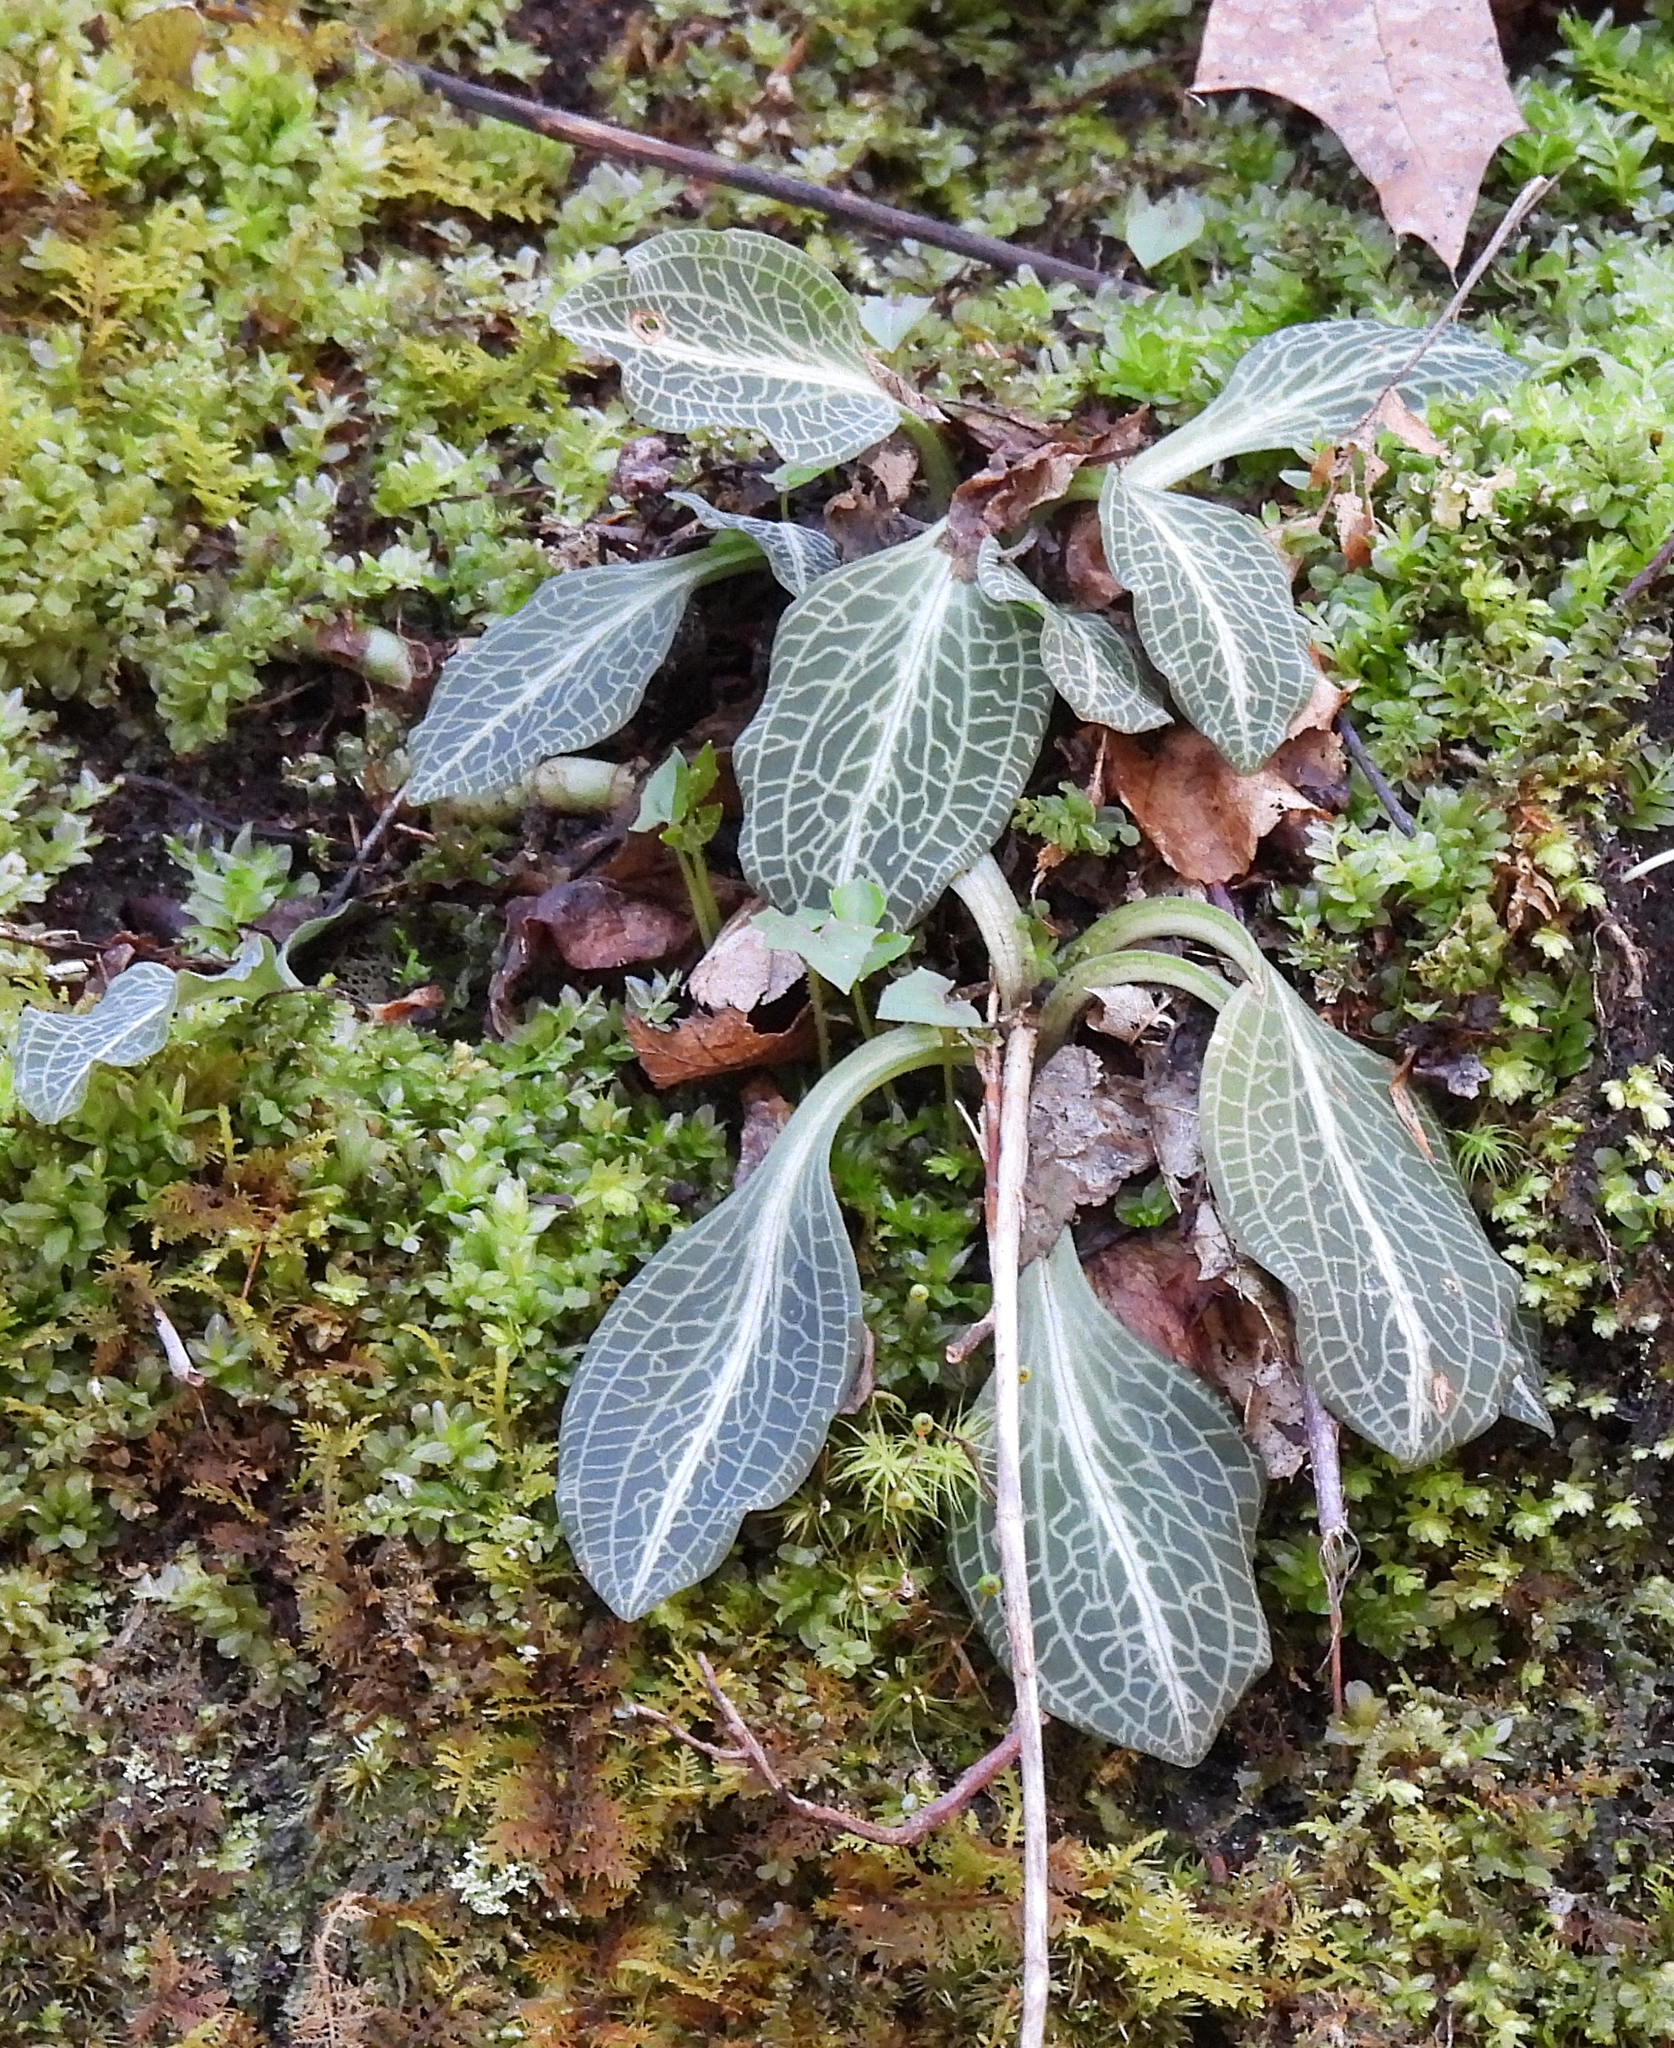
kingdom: Plantae
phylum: Tracheophyta
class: Liliopsida
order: Asparagales
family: Orchidaceae
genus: Goodyera
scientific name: Goodyera pubescens
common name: Downy rattlesnake-plantain
